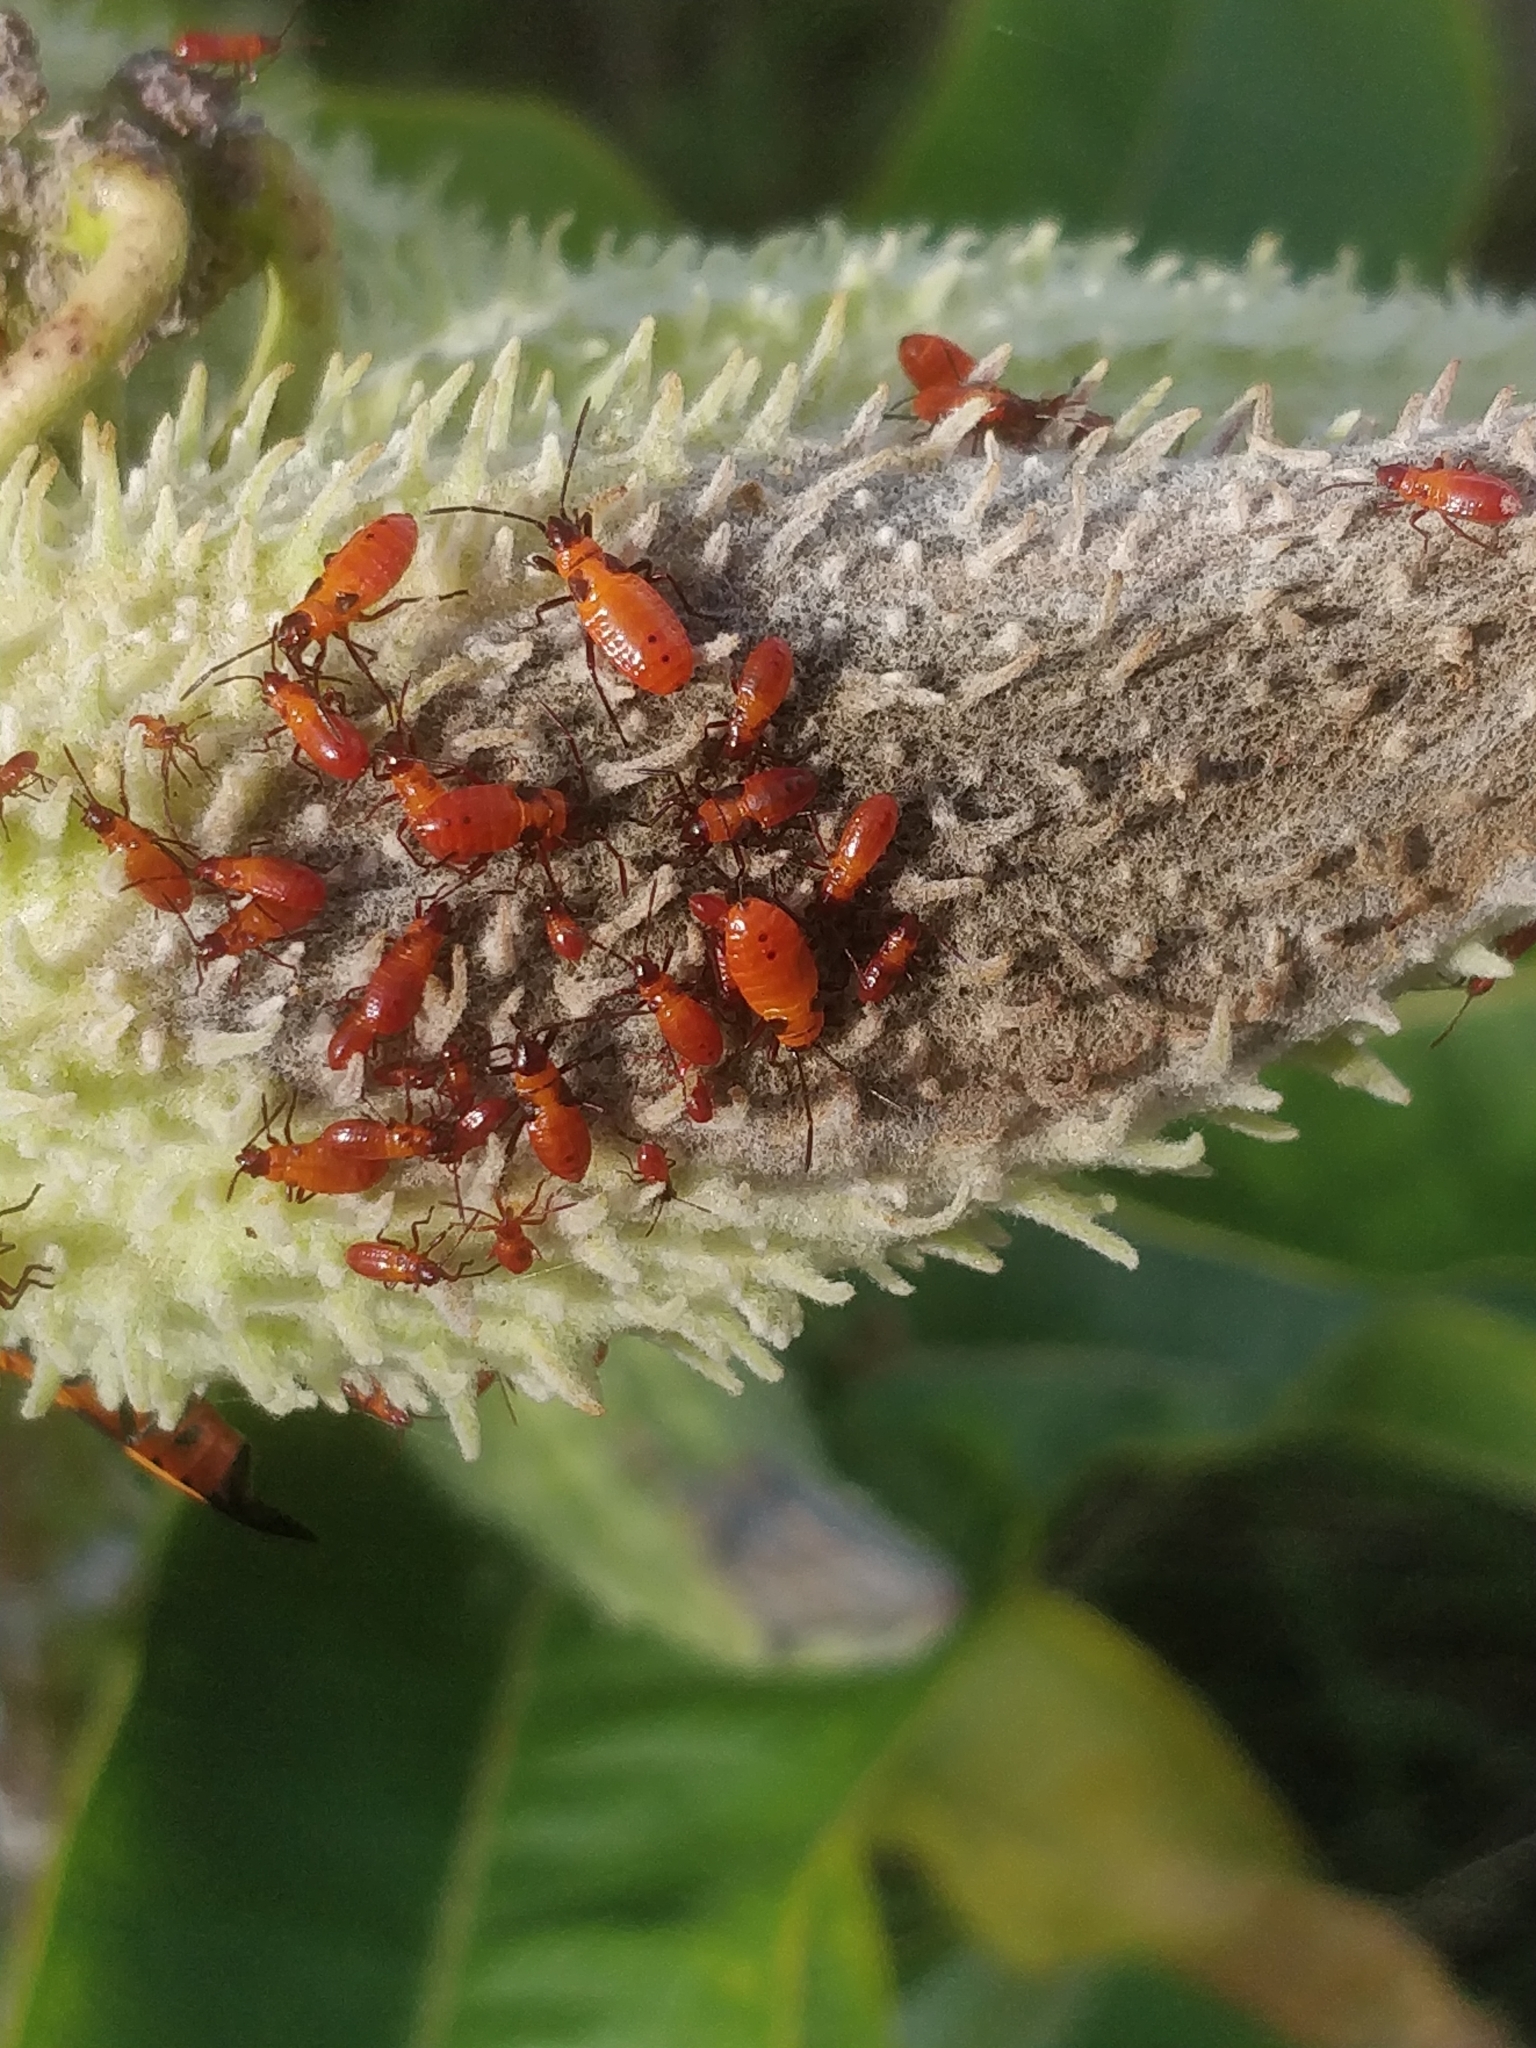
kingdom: Animalia
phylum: Arthropoda
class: Insecta
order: Hemiptera
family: Lygaeidae
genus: Oncopeltus
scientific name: Oncopeltus fasciatus
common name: Large milkweed bug
